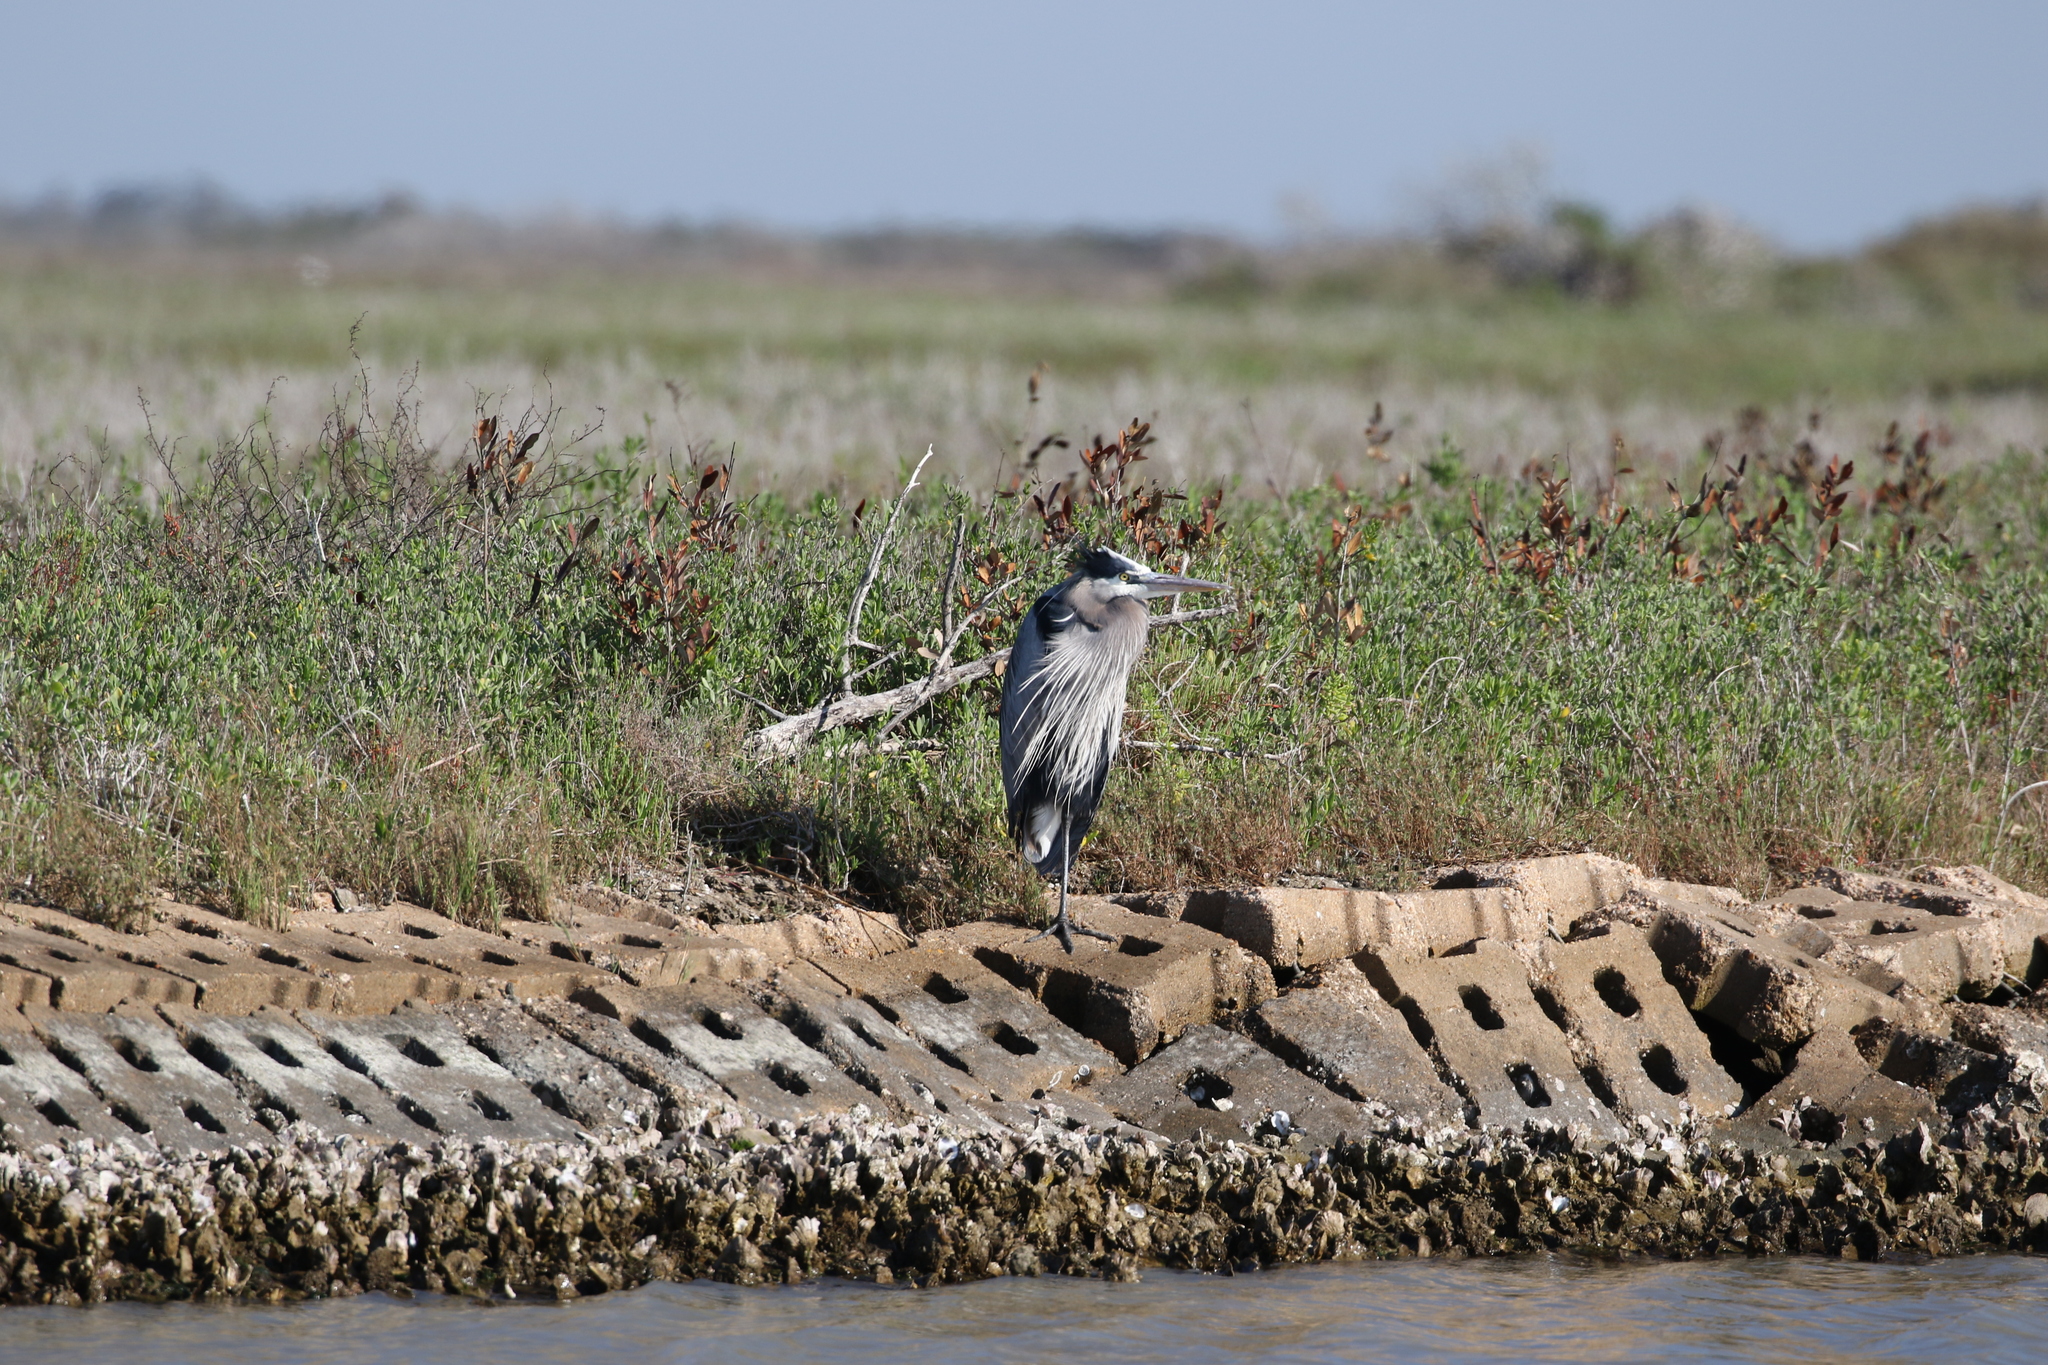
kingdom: Animalia
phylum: Chordata
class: Aves
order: Pelecaniformes
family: Ardeidae
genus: Ardea
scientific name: Ardea herodias
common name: Great blue heron
